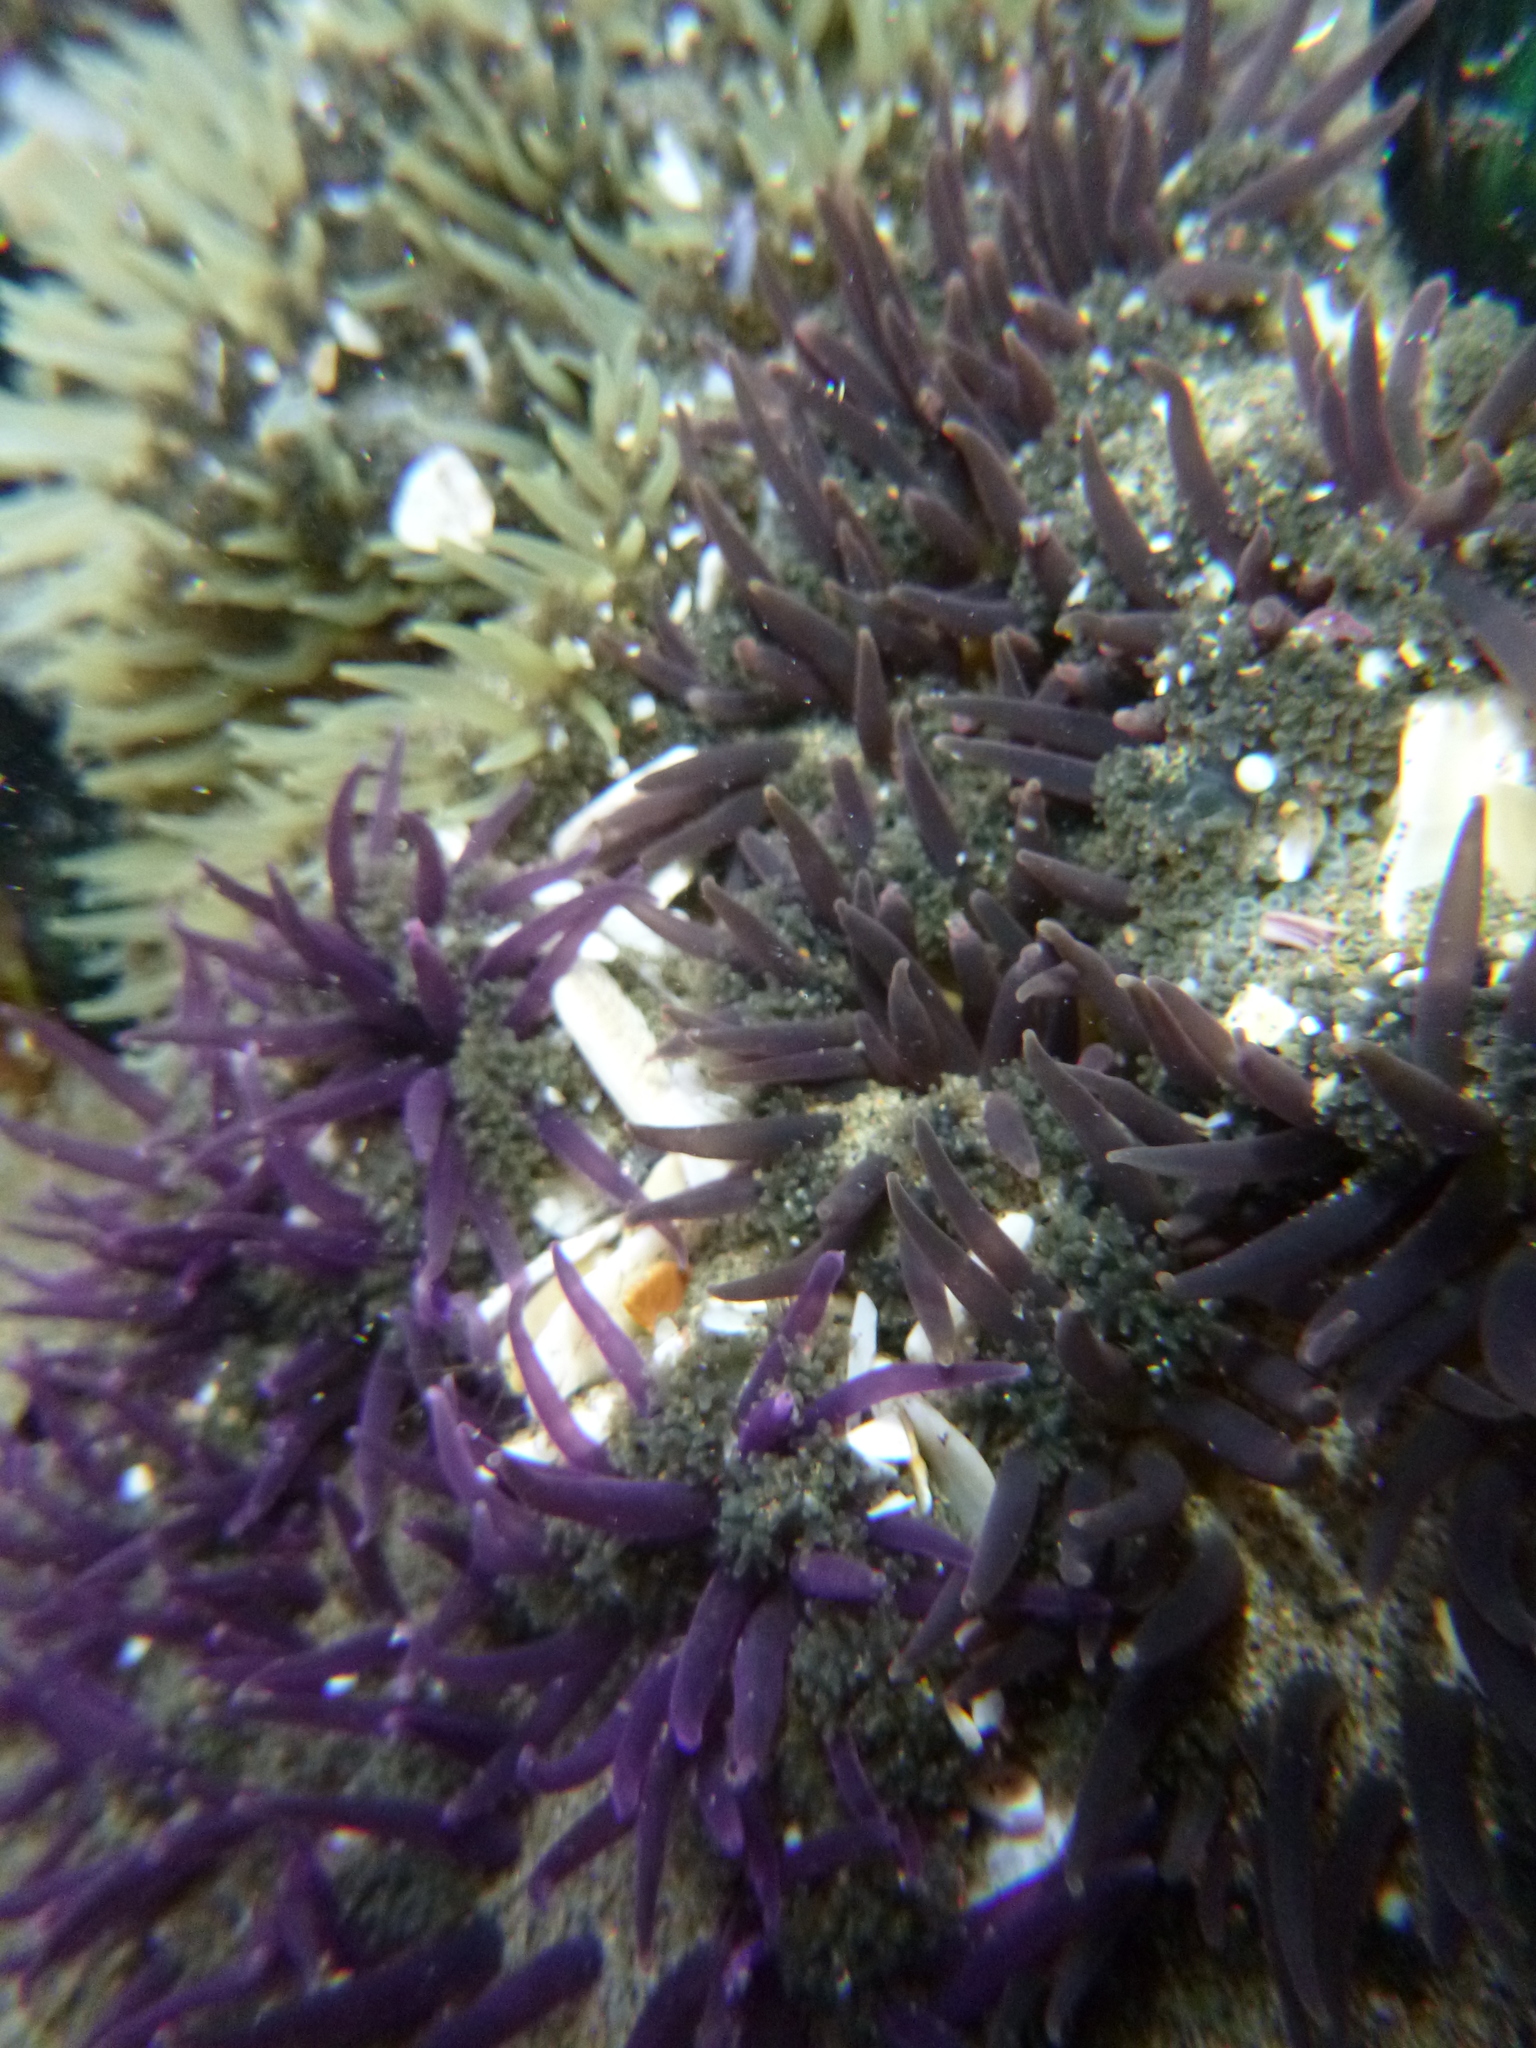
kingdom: Animalia
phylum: Cnidaria
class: Anthozoa
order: Actiniaria
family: Actiniidae
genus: Oulactis
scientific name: Oulactis magna
